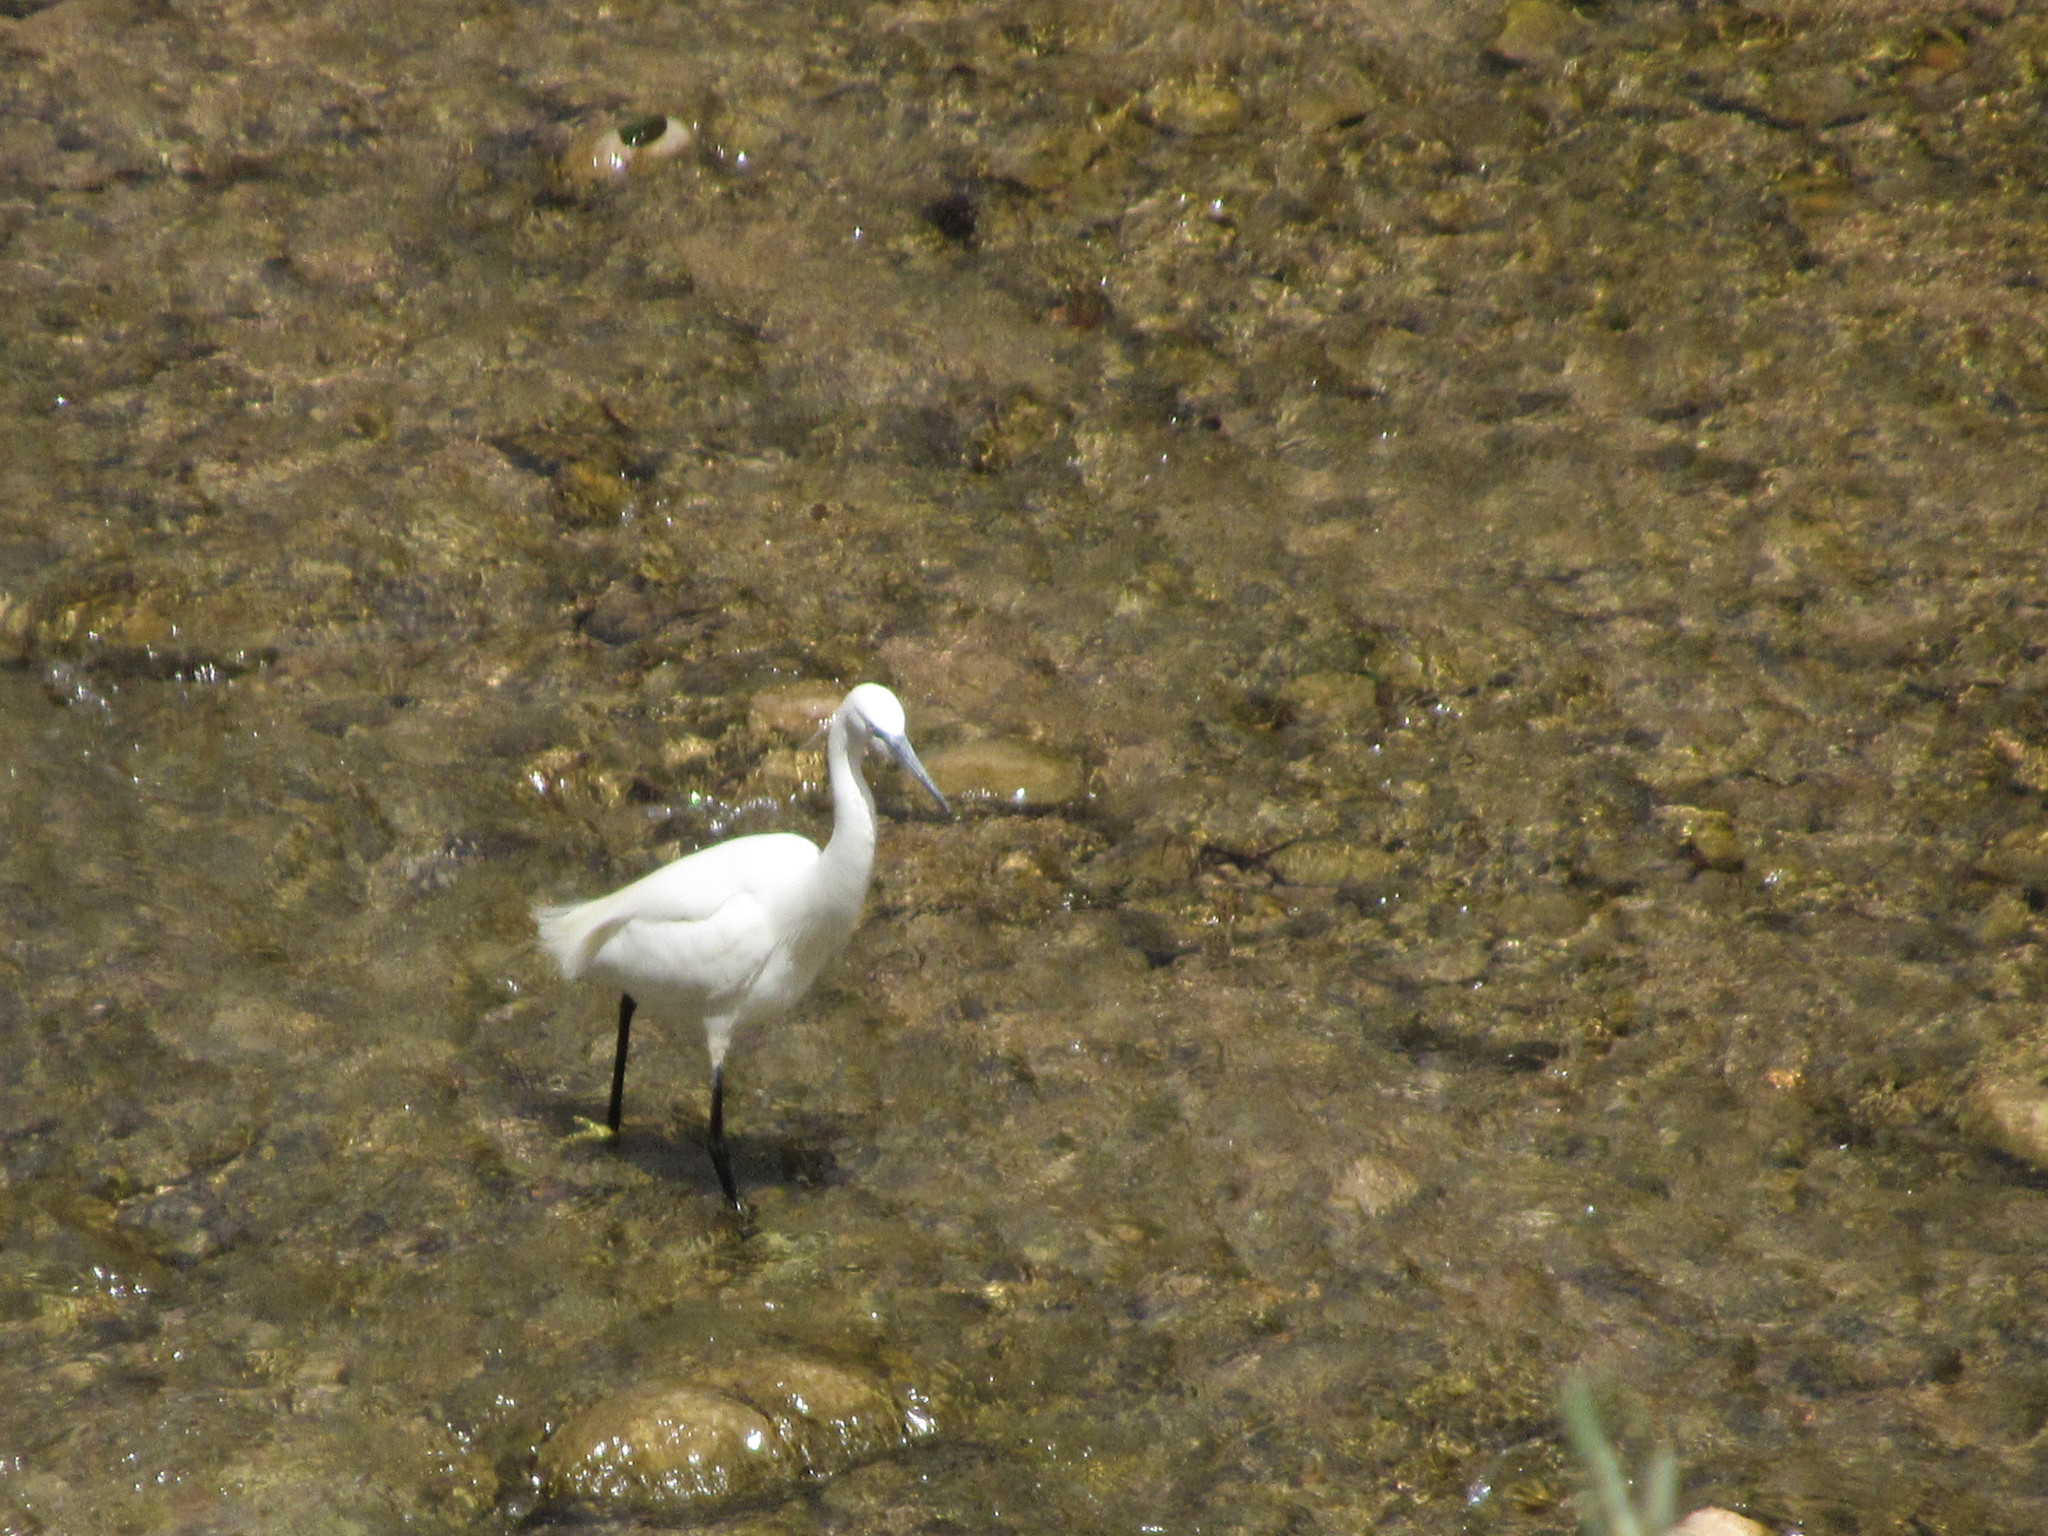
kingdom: Animalia
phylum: Chordata
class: Aves
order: Pelecaniformes
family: Ardeidae
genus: Egretta
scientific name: Egretta garzetta
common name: Little egret
